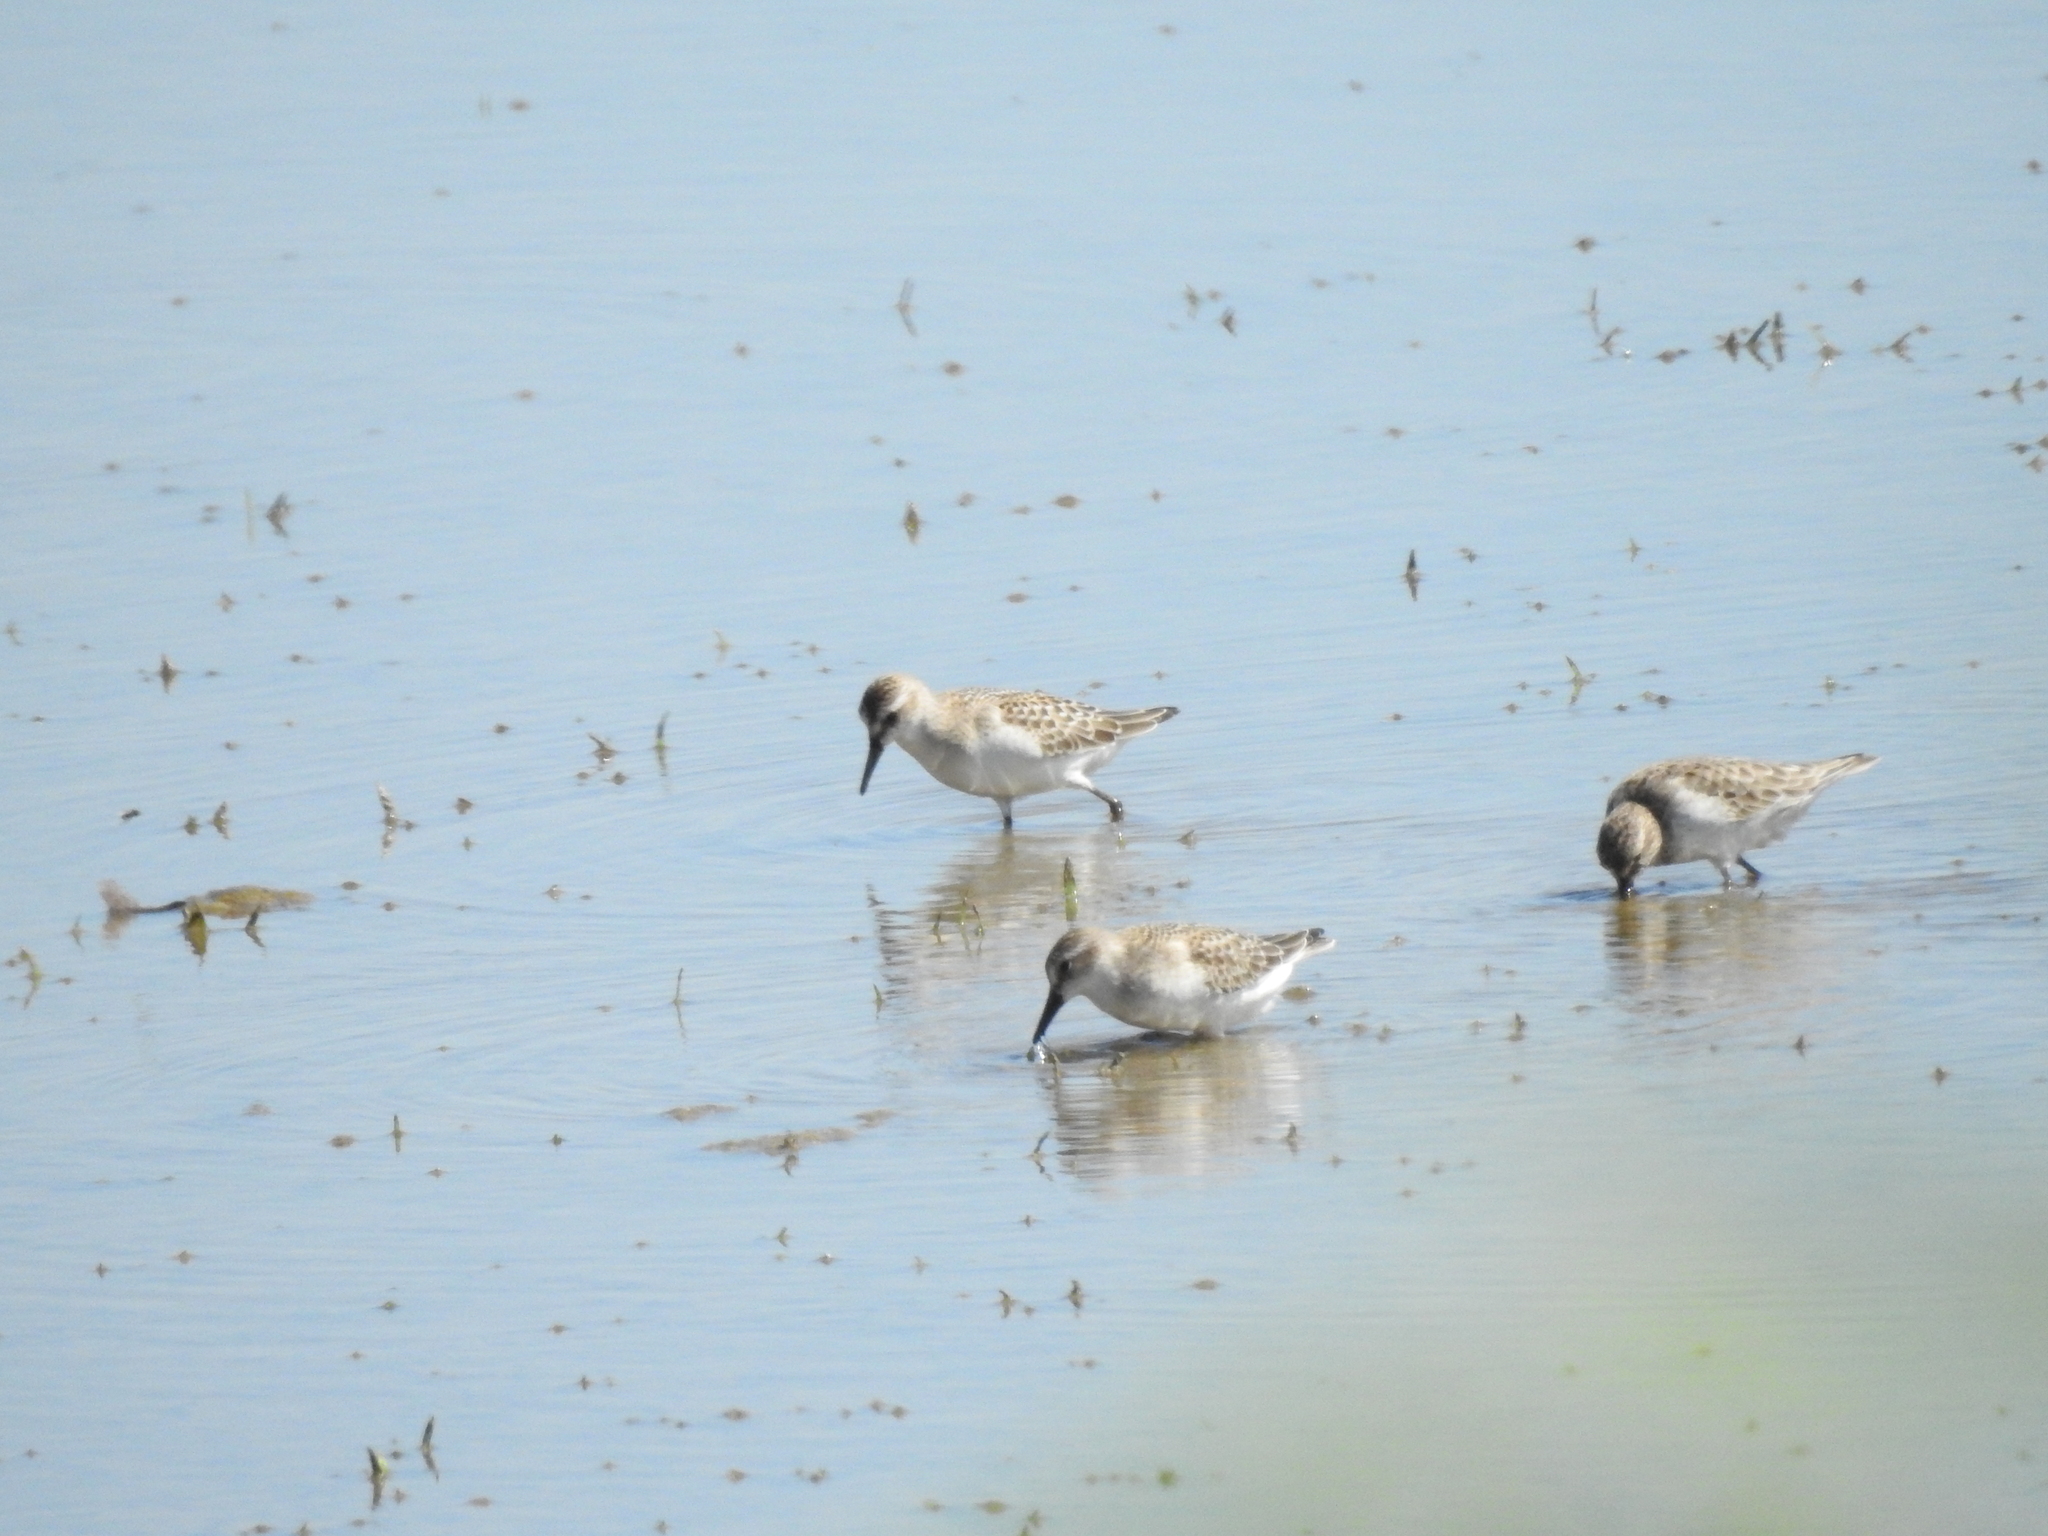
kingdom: Animalia
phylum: Chordata
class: Aves
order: Charadriiformes
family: Scolopacidae
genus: Calidris
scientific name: Calidris pusilla
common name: Semipalmated sandpiper
